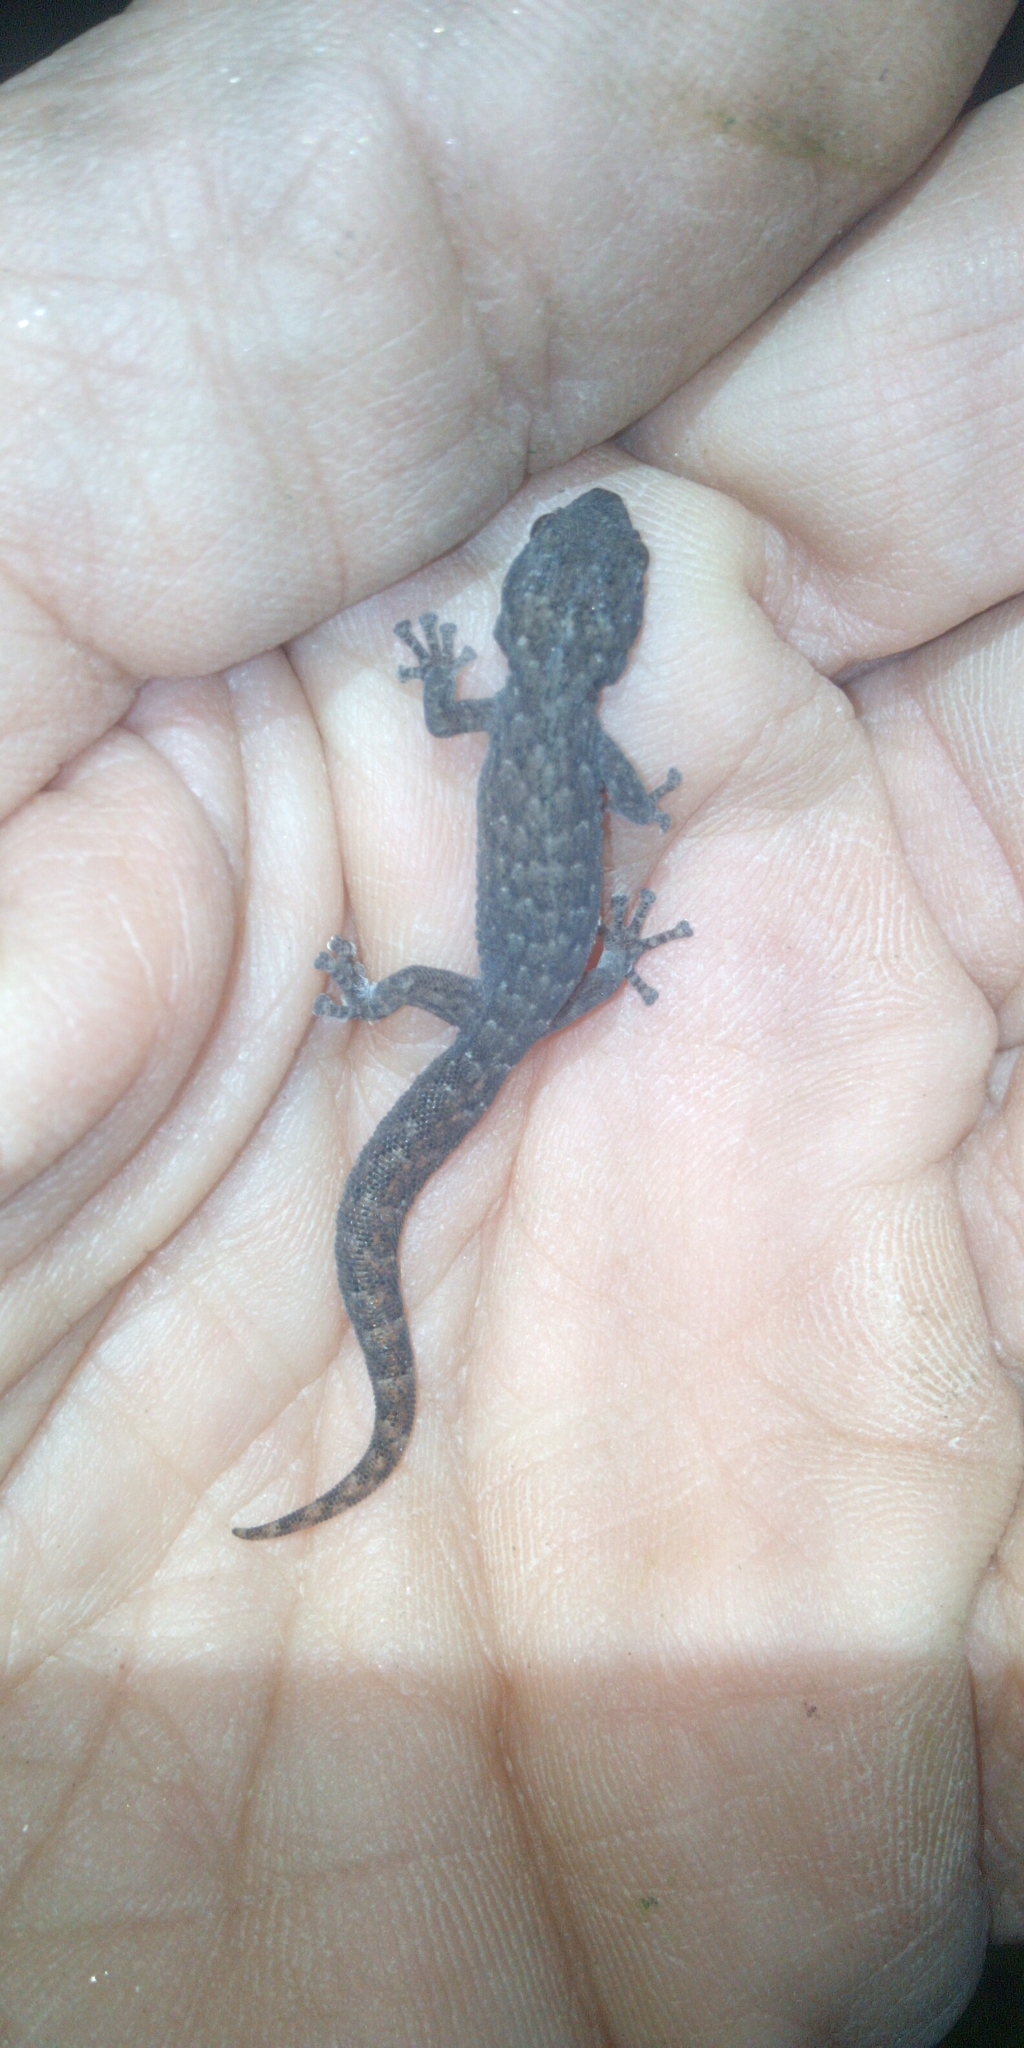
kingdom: Animalia
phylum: Chordata
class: Squamata
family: Gekkonidae
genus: Afrogecko
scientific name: Afrogecko porphyreus
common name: Marbled leaf-toed gecko
